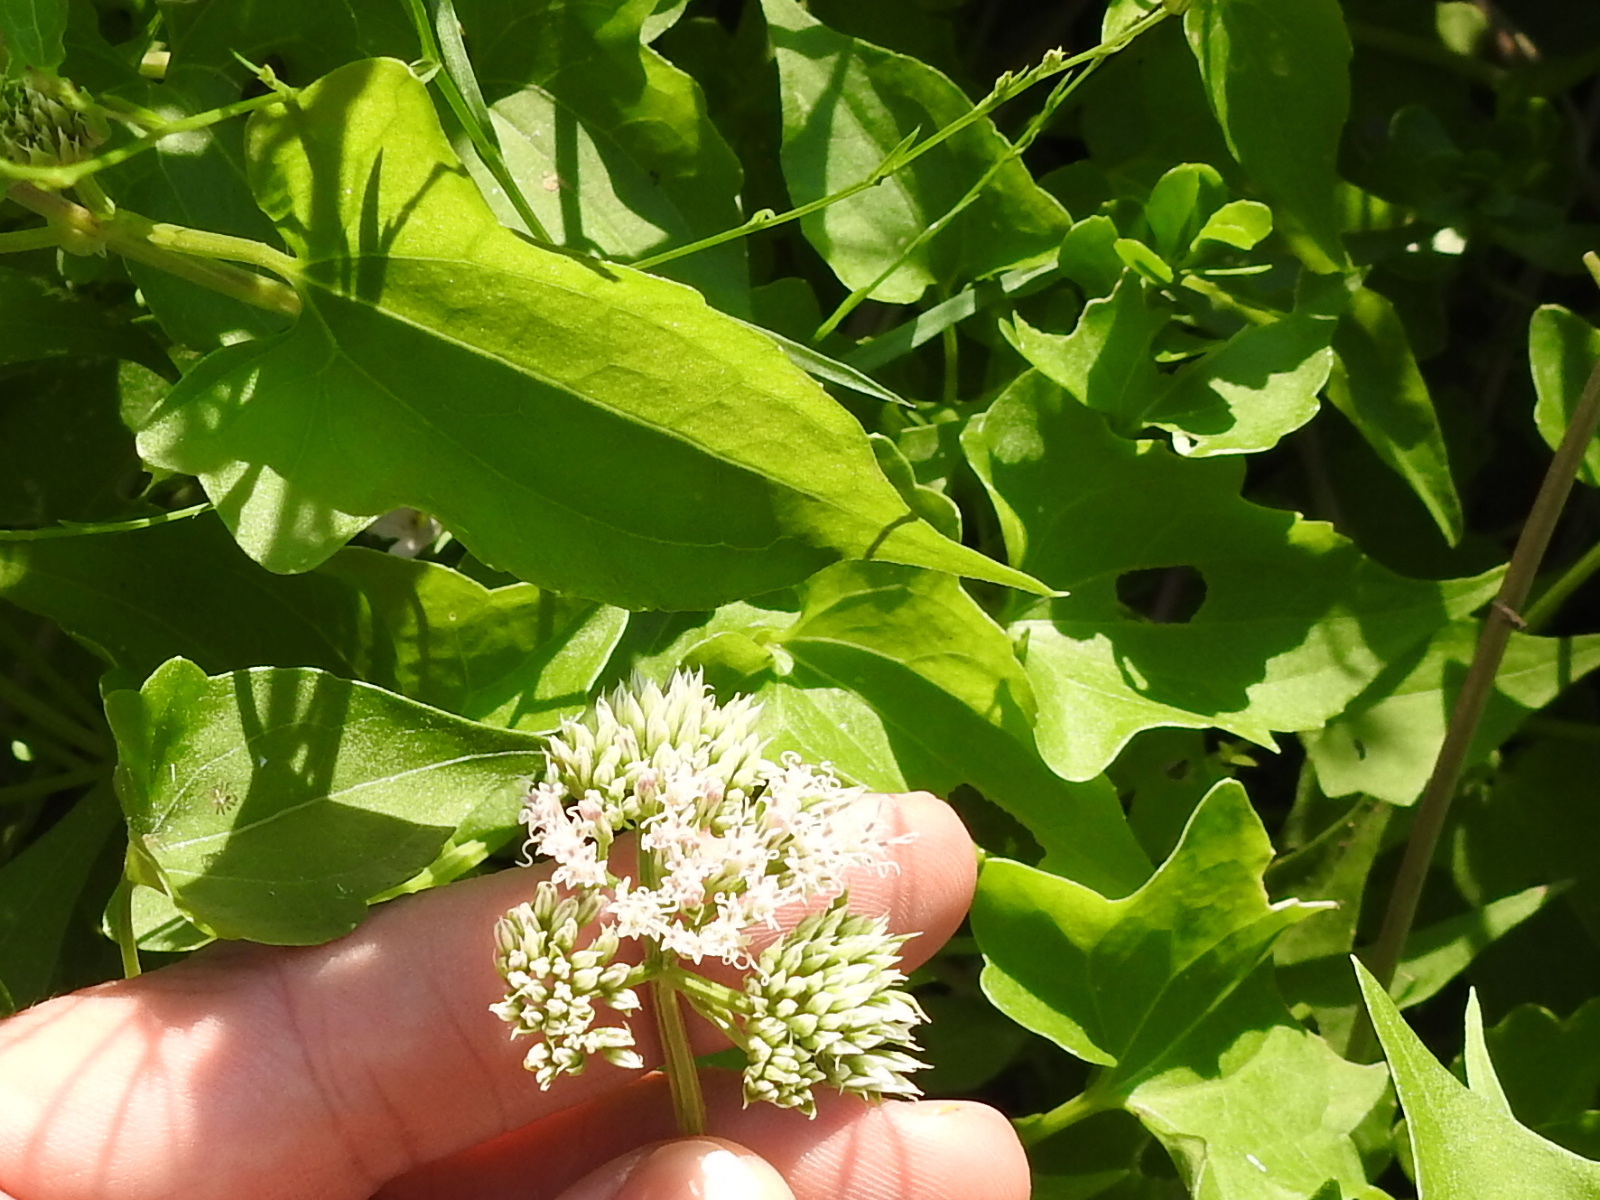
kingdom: Plantae
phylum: Tracheophyta
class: Magnoliopsida
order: Asterales
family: Asteraceae
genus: Mikania
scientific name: Mikania scandens
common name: Climbing hempvine
